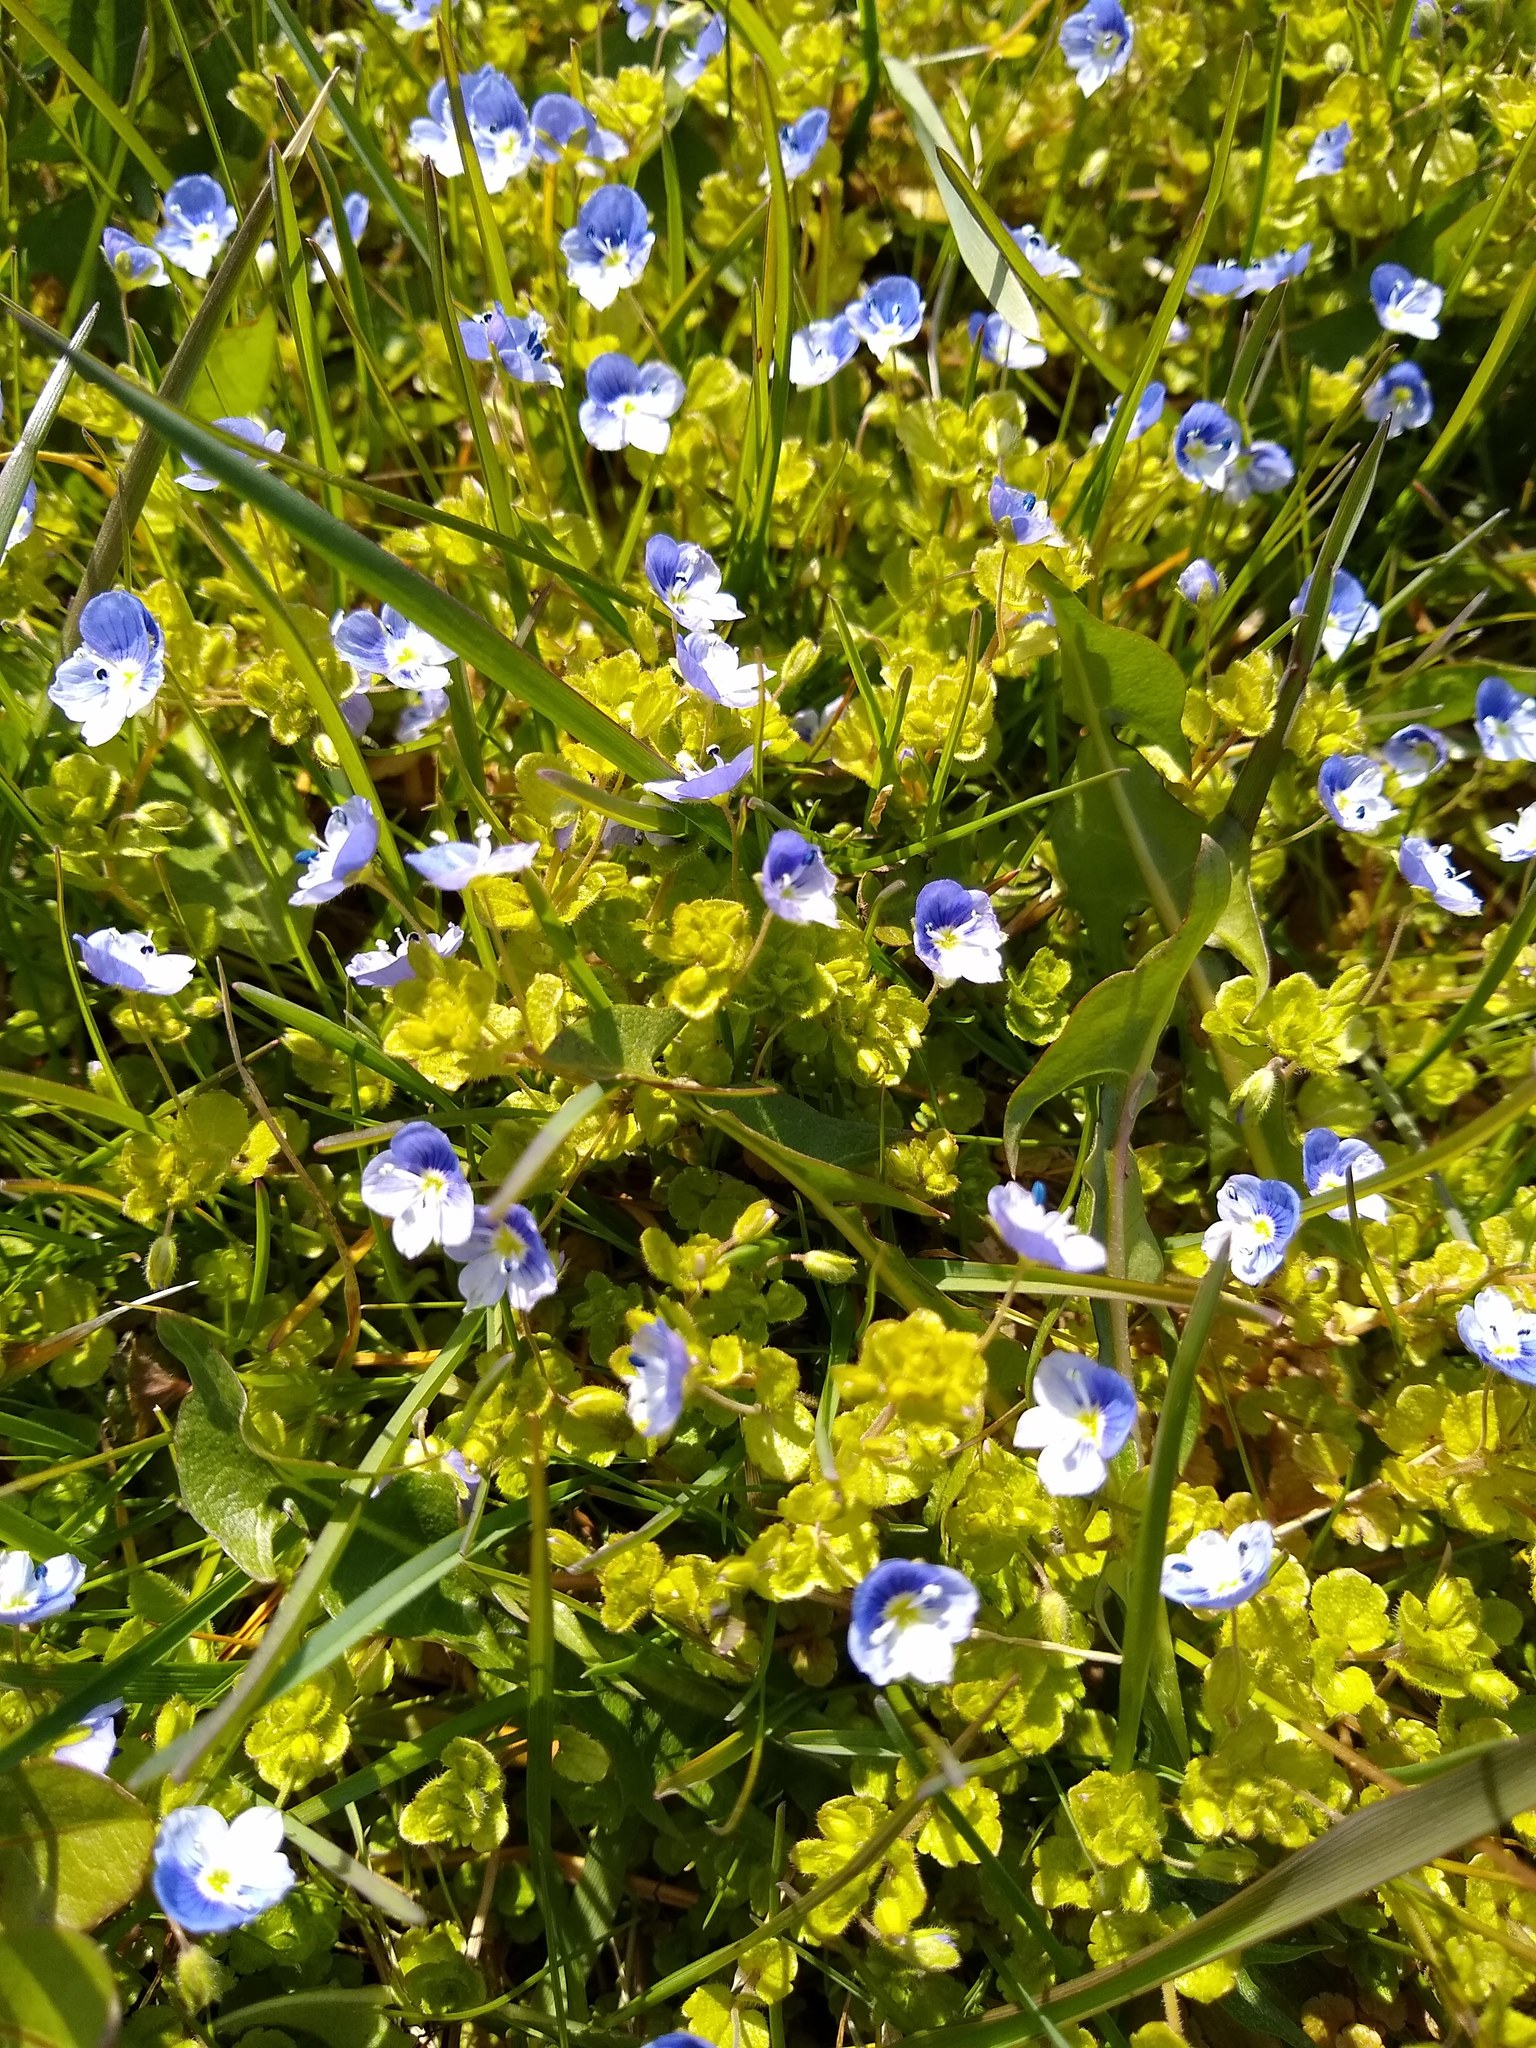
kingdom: Plantae
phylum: Tracheophyta
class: Magnoliopsida
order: Lamiales
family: Plantaginaceae
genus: Veronica
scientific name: Veronica persica
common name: Common field-speedwell
